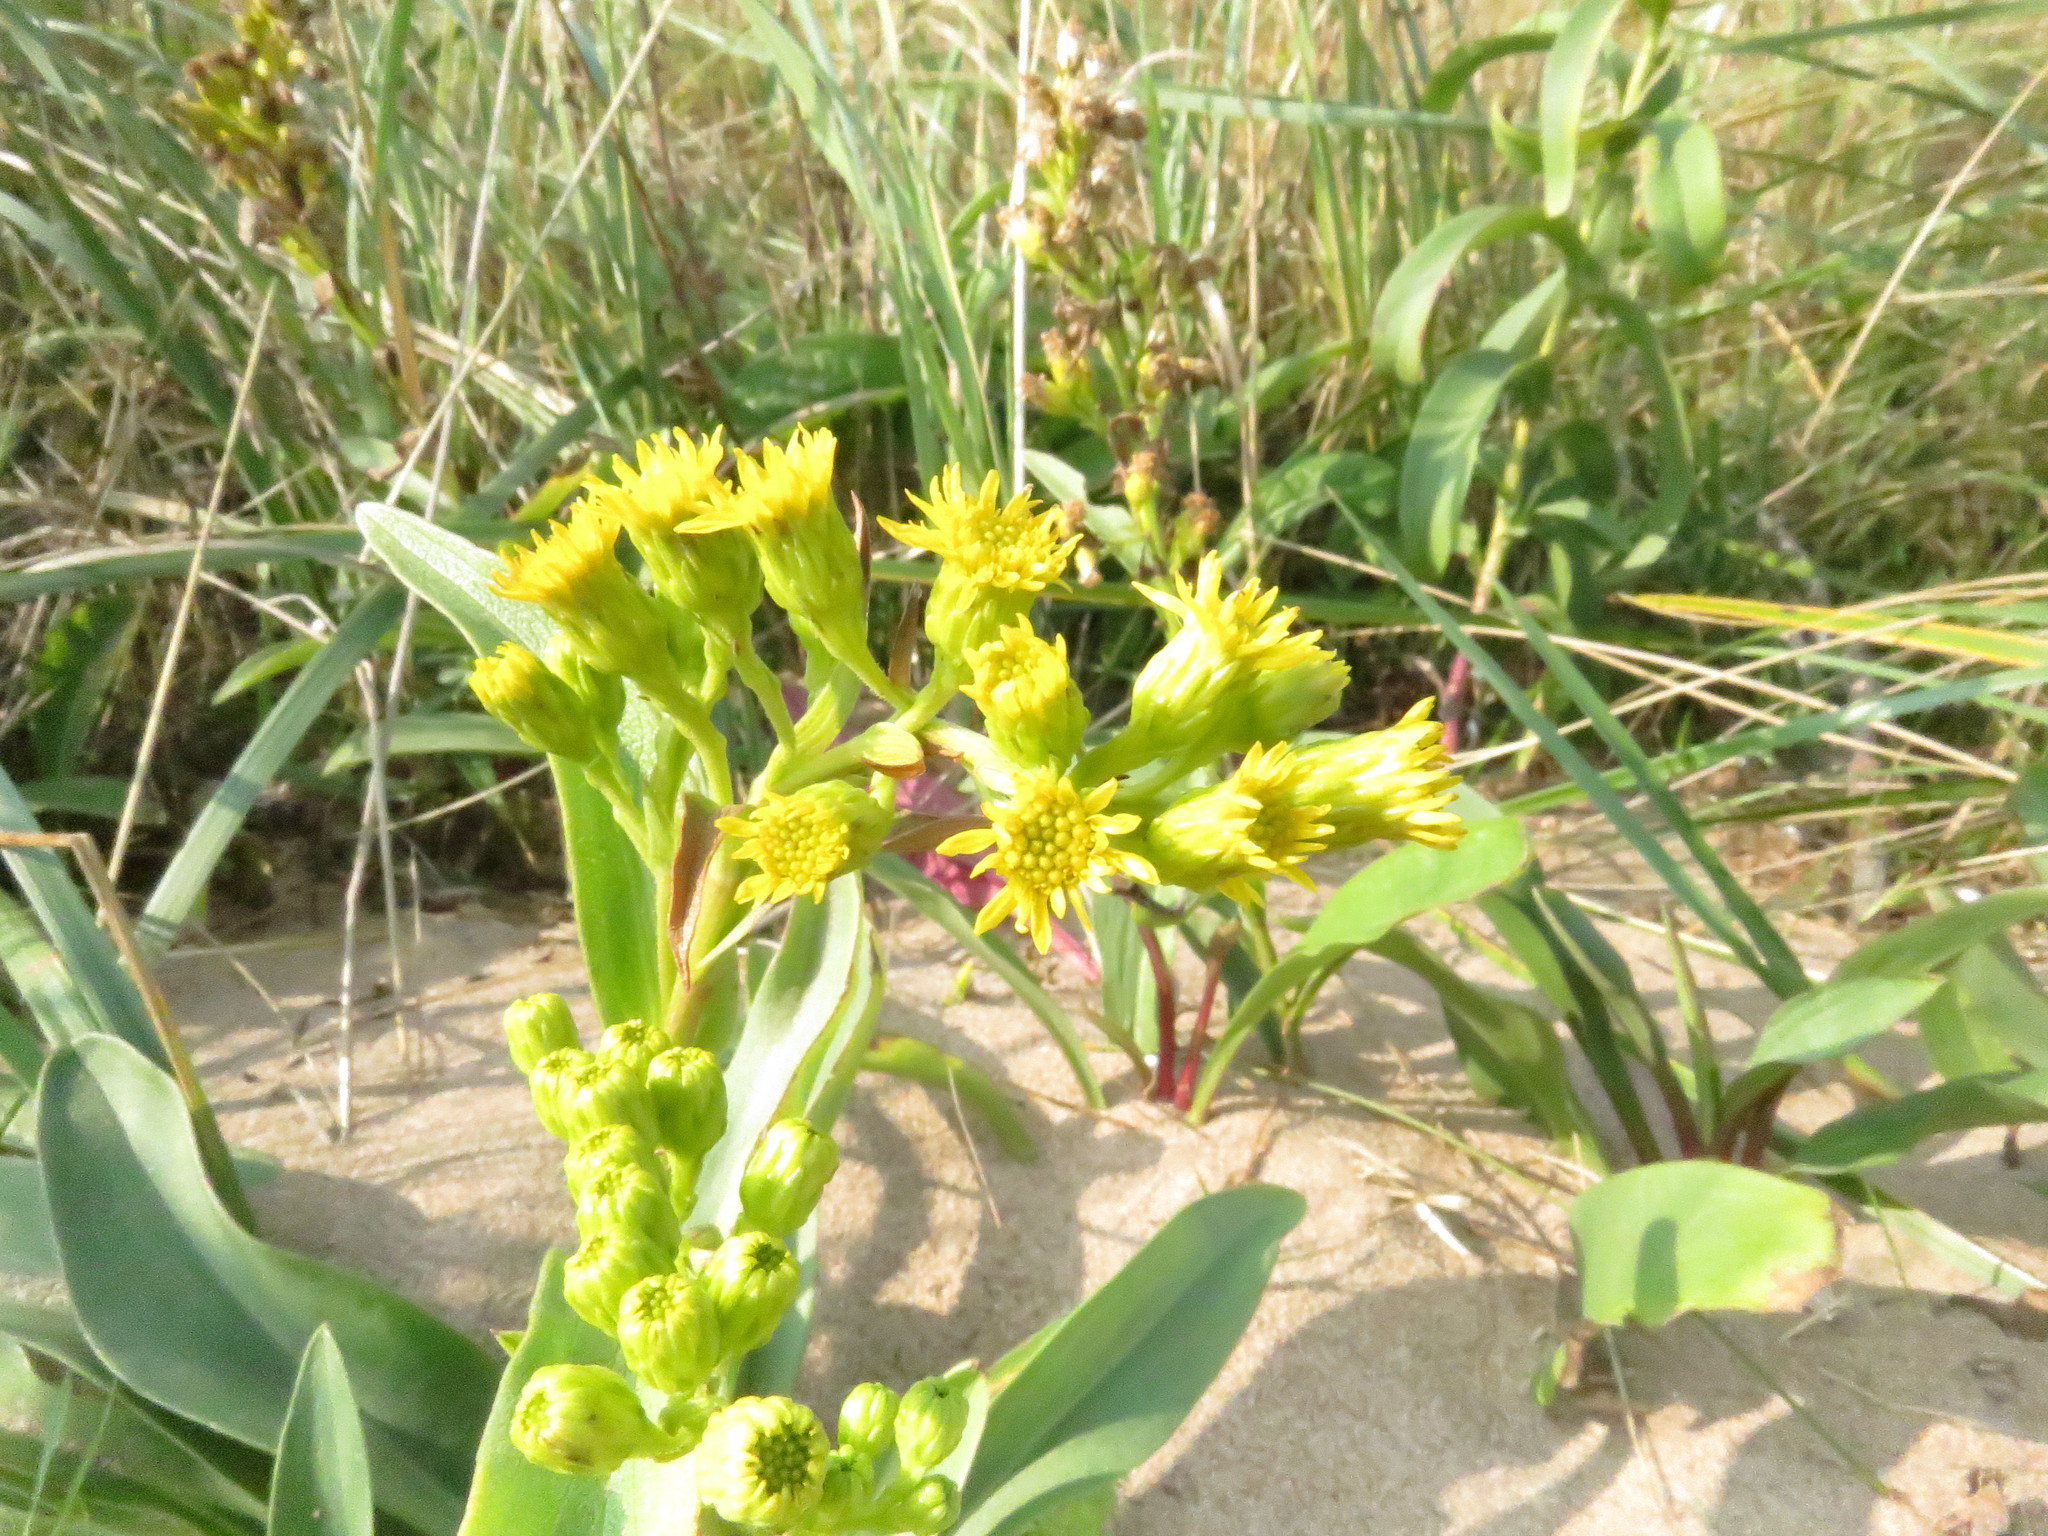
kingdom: Plantae
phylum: Tracheophyta
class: Magnoliopsida
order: Asterales
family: Asteraceae
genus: Solidago
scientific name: Solidago sempervirens
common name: Salt-marsh goldenrod
